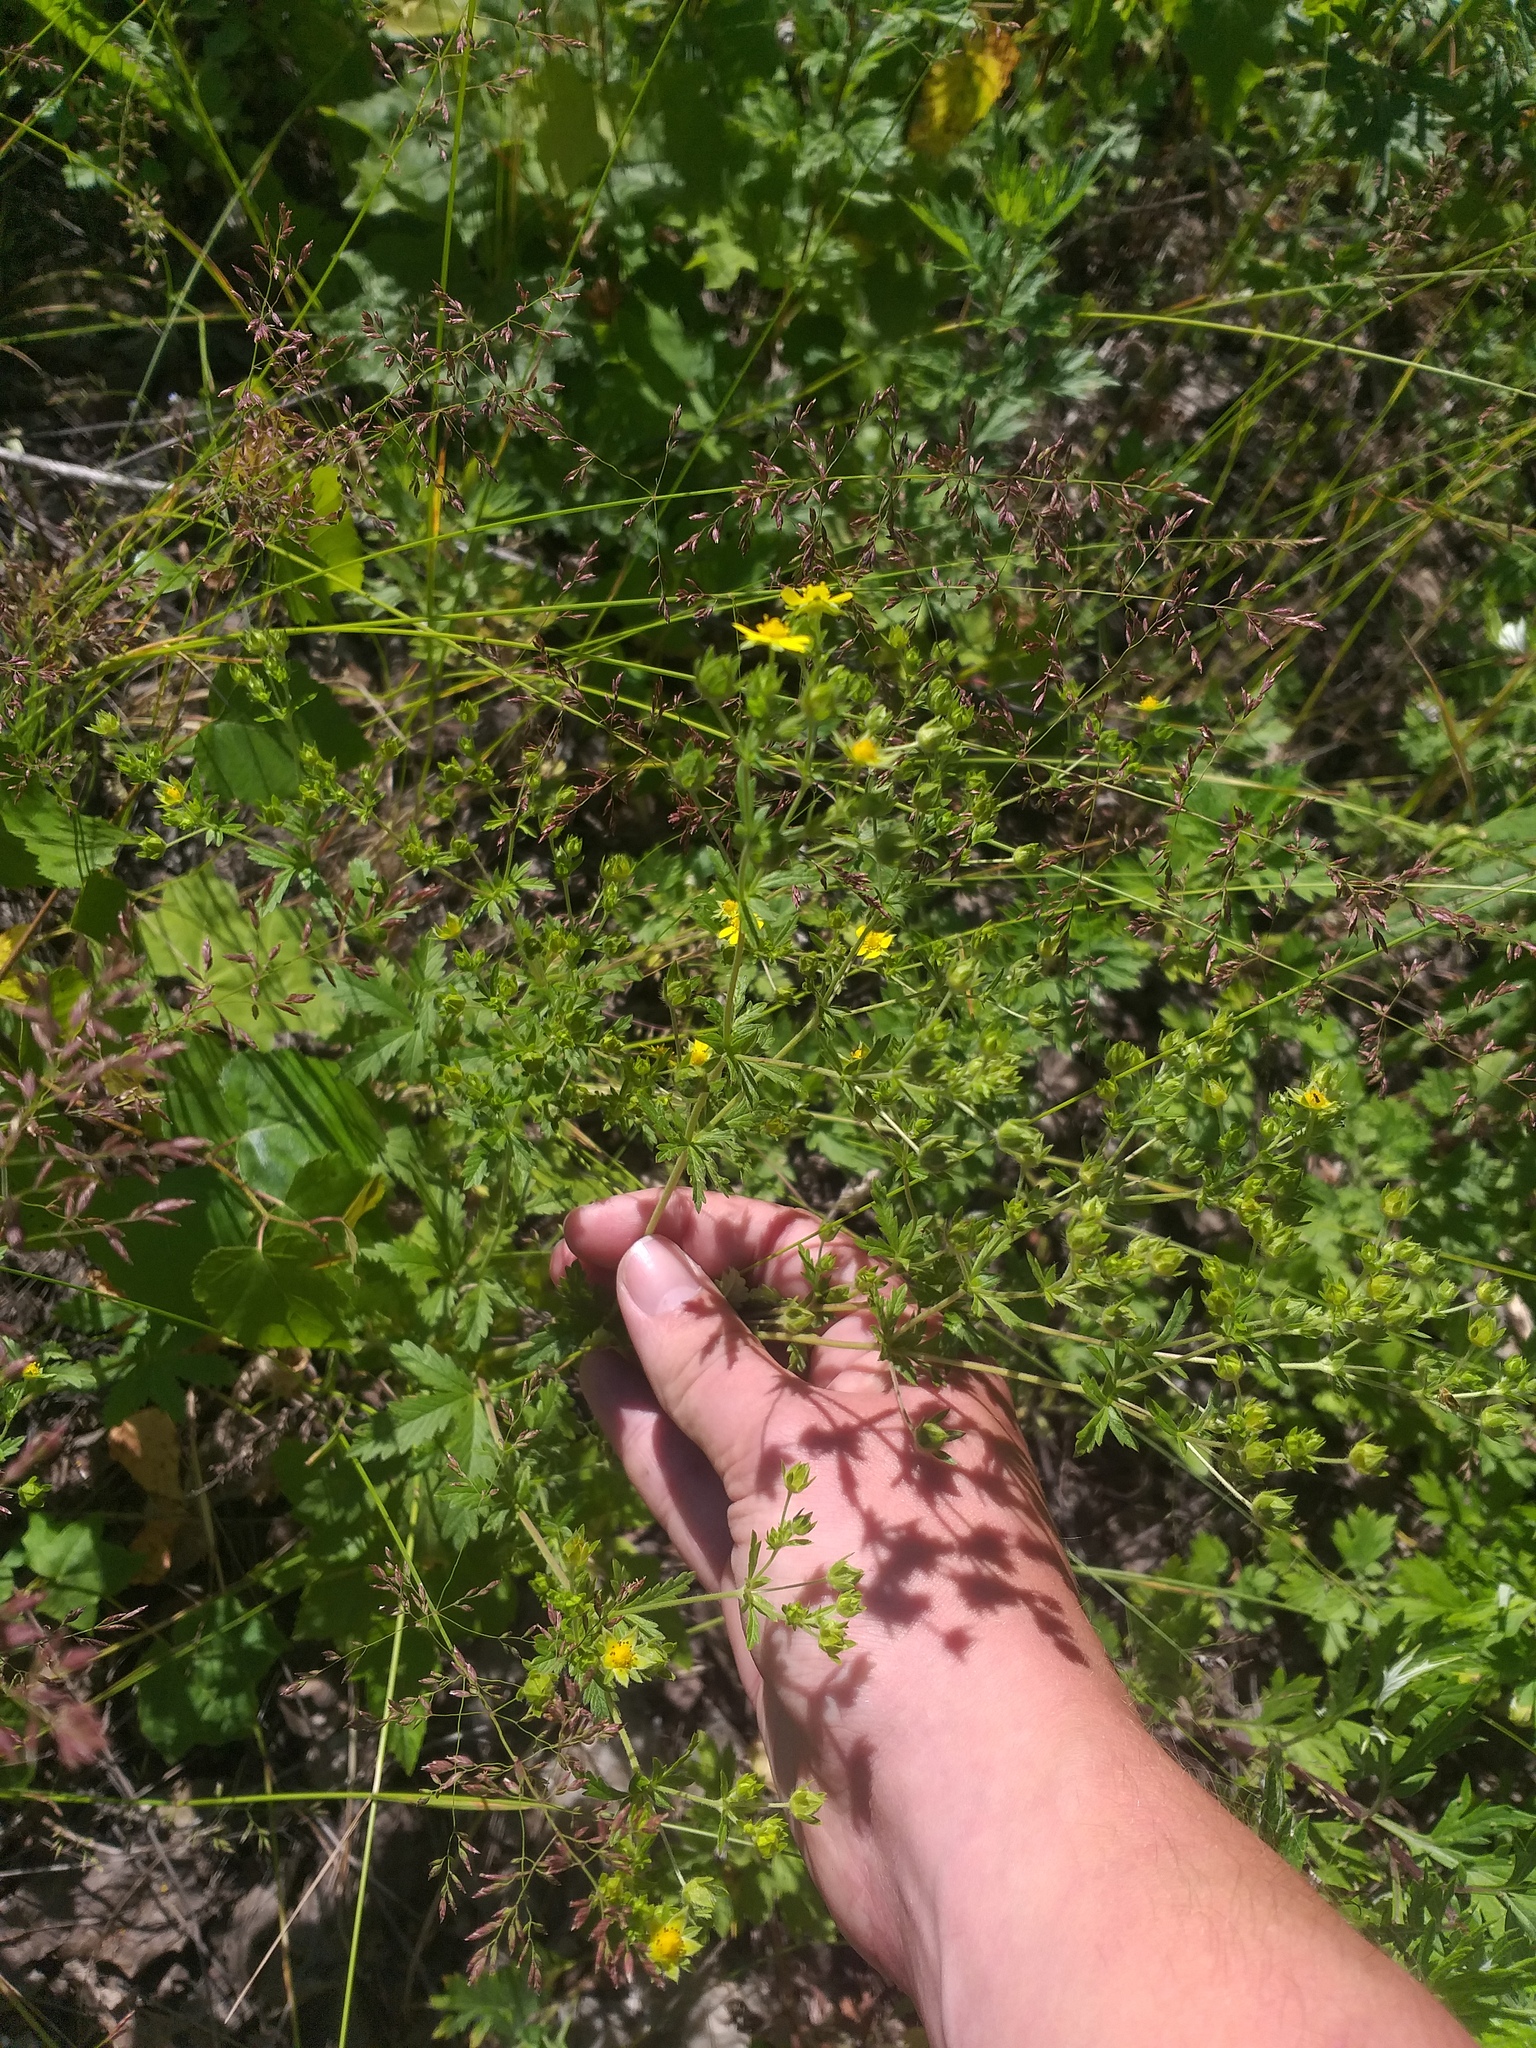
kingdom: Plantae
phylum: Tracheophyta
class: Magnoliopsida
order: Rosales
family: Rosaceae
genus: Potentilla
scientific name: Potentilla intermedia
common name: Downy cinquefoil
